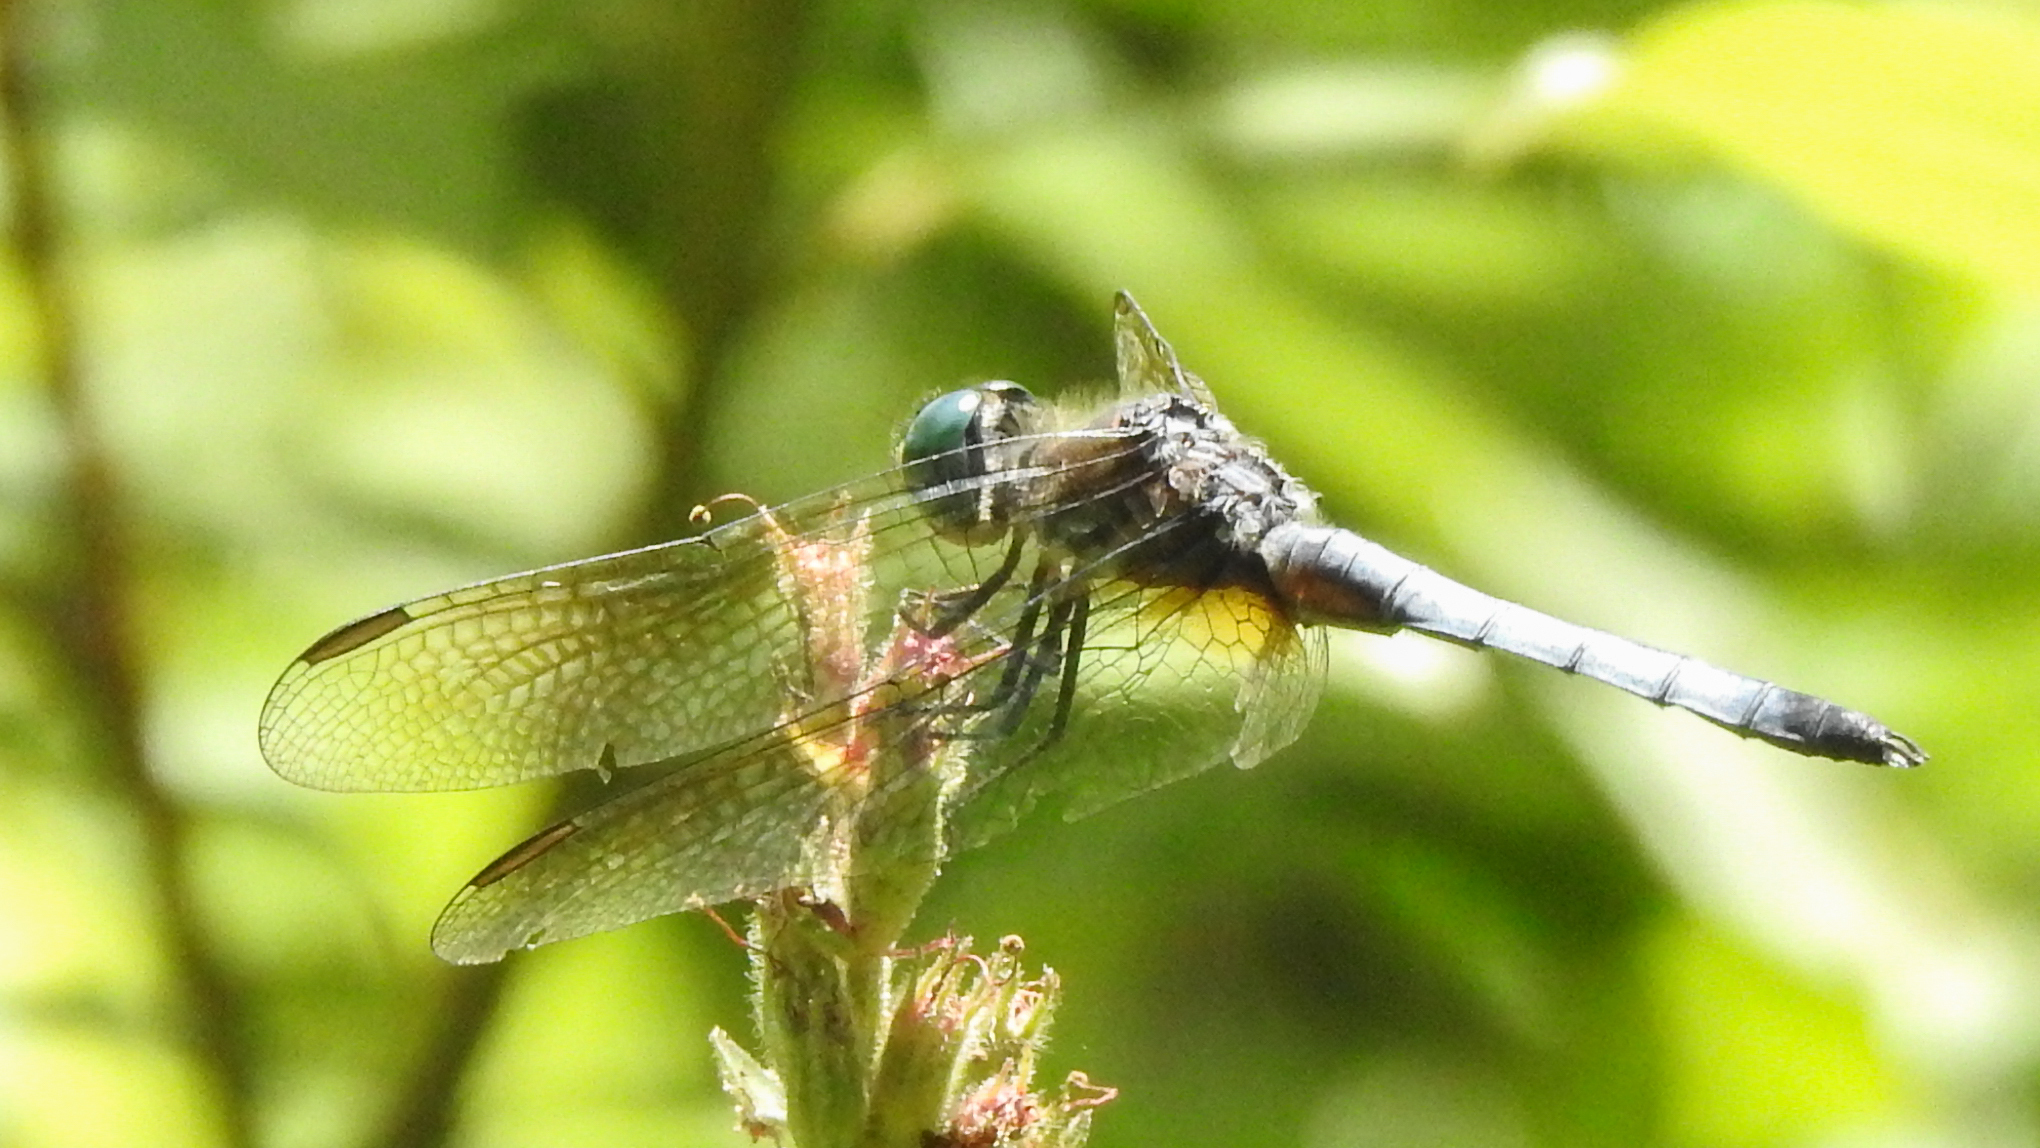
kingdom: Animalia
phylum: Arthropoda
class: Insecta
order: Odonata
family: Libellulidae
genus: Pachydiplax
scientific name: Pachydiplax longipennis
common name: Blue dasher
